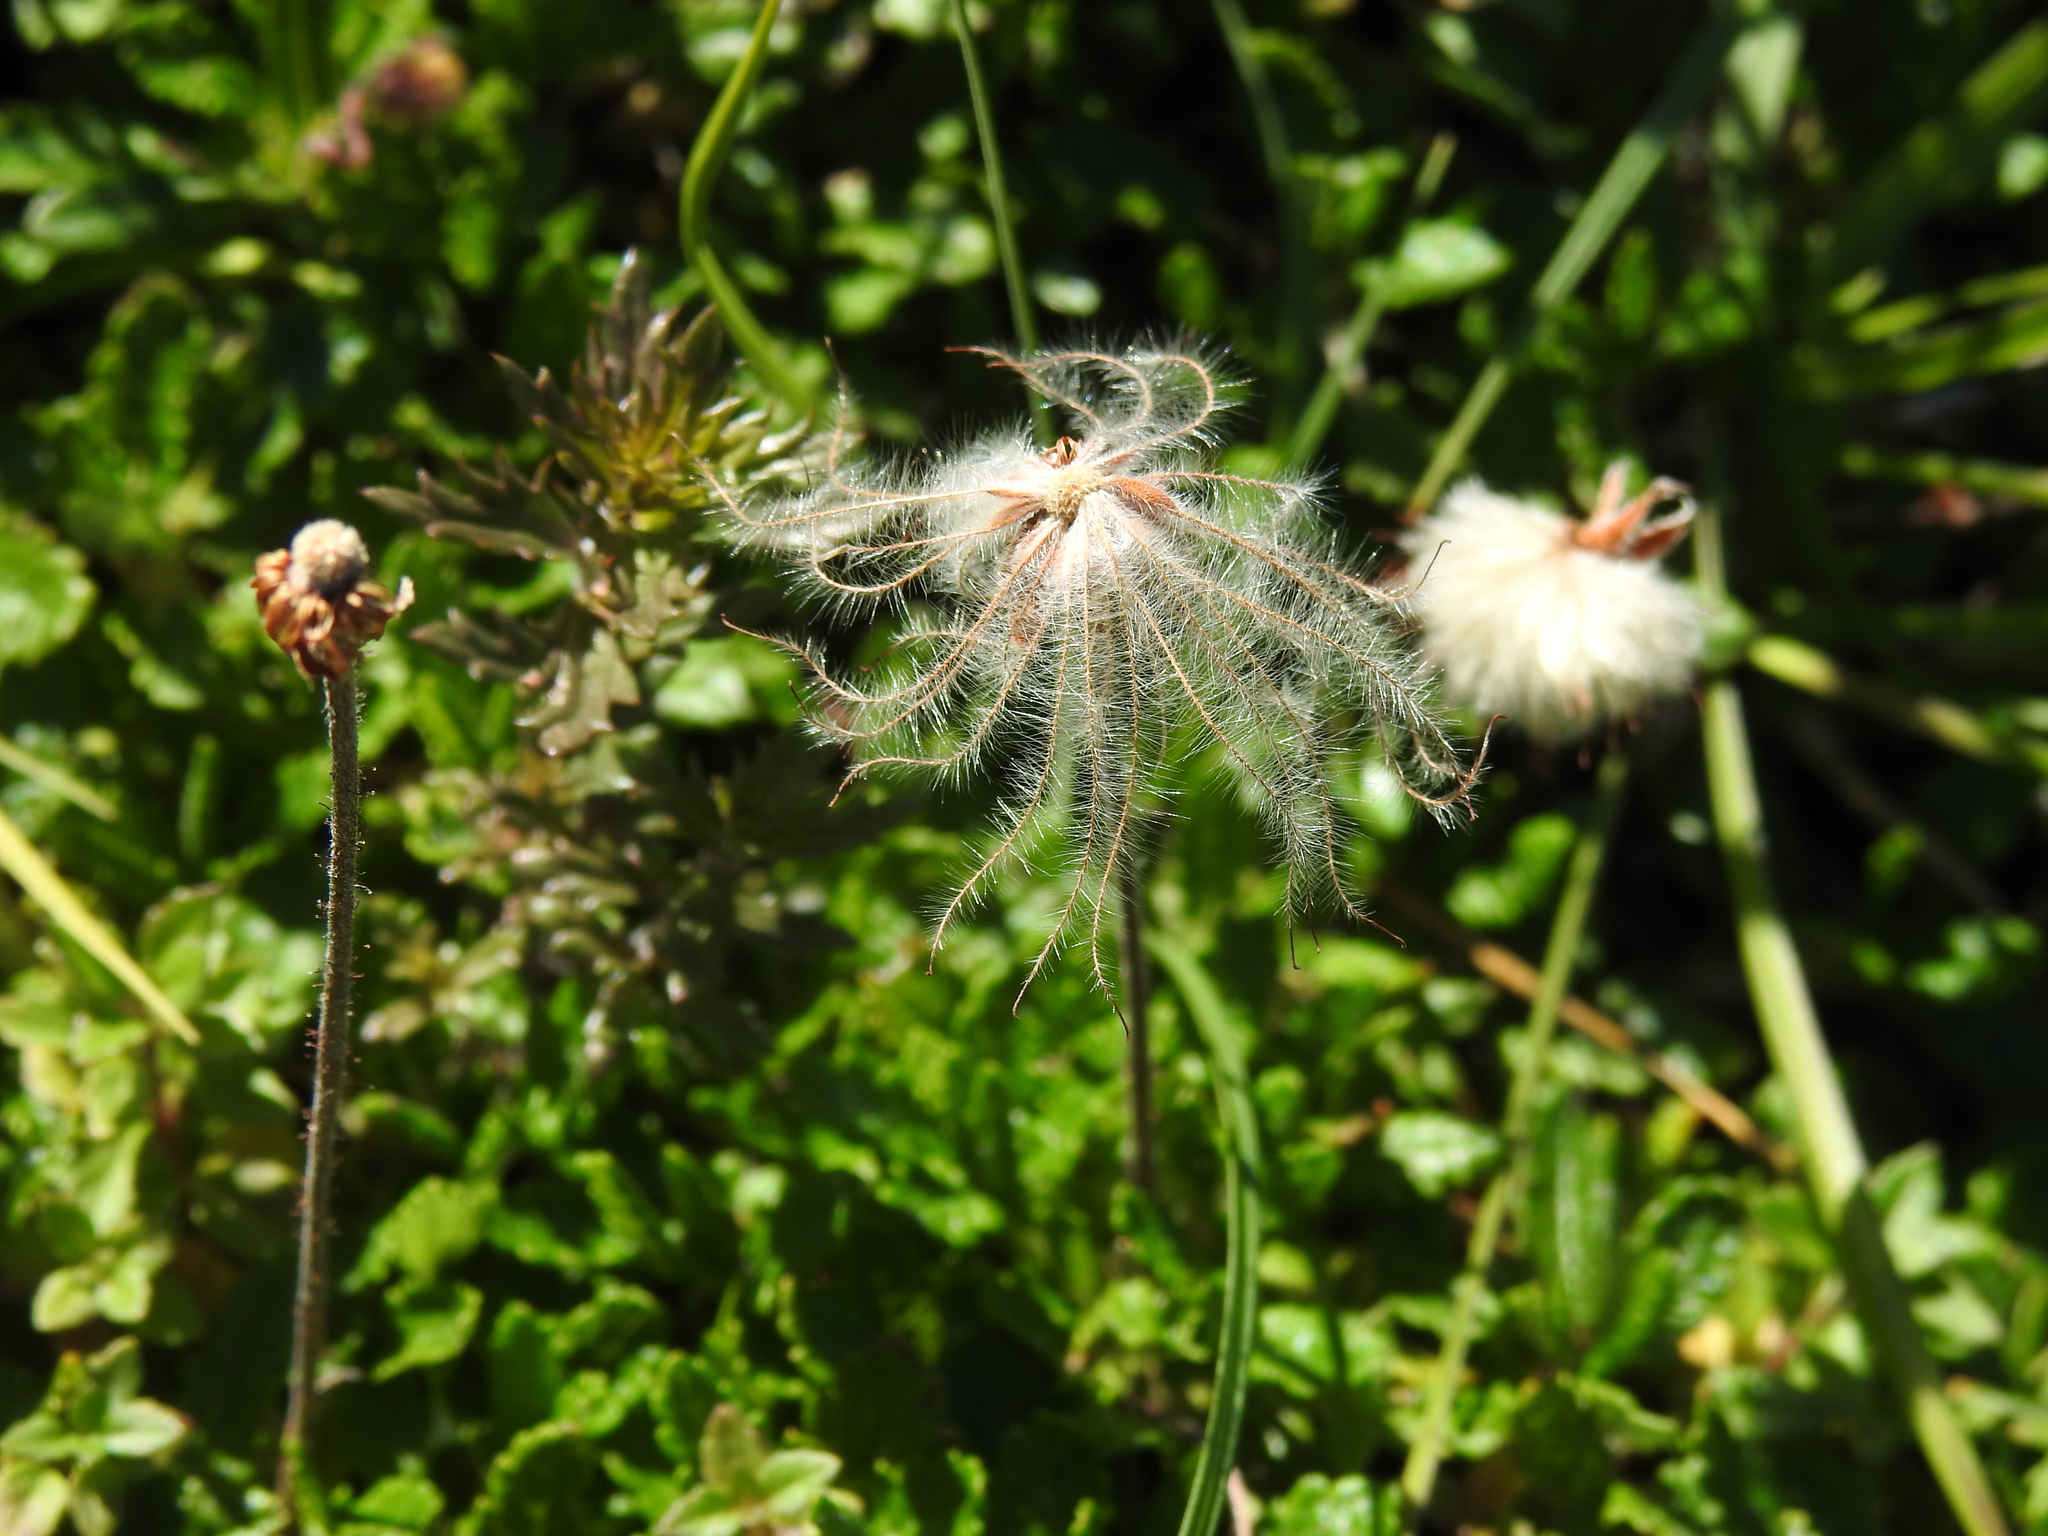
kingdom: Plantae
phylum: Tracheophyta
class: Magnoliopsida
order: Rosales
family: Rosaceae
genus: Dryas
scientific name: Dryas octopetala
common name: Eight-petal mountain-avens
